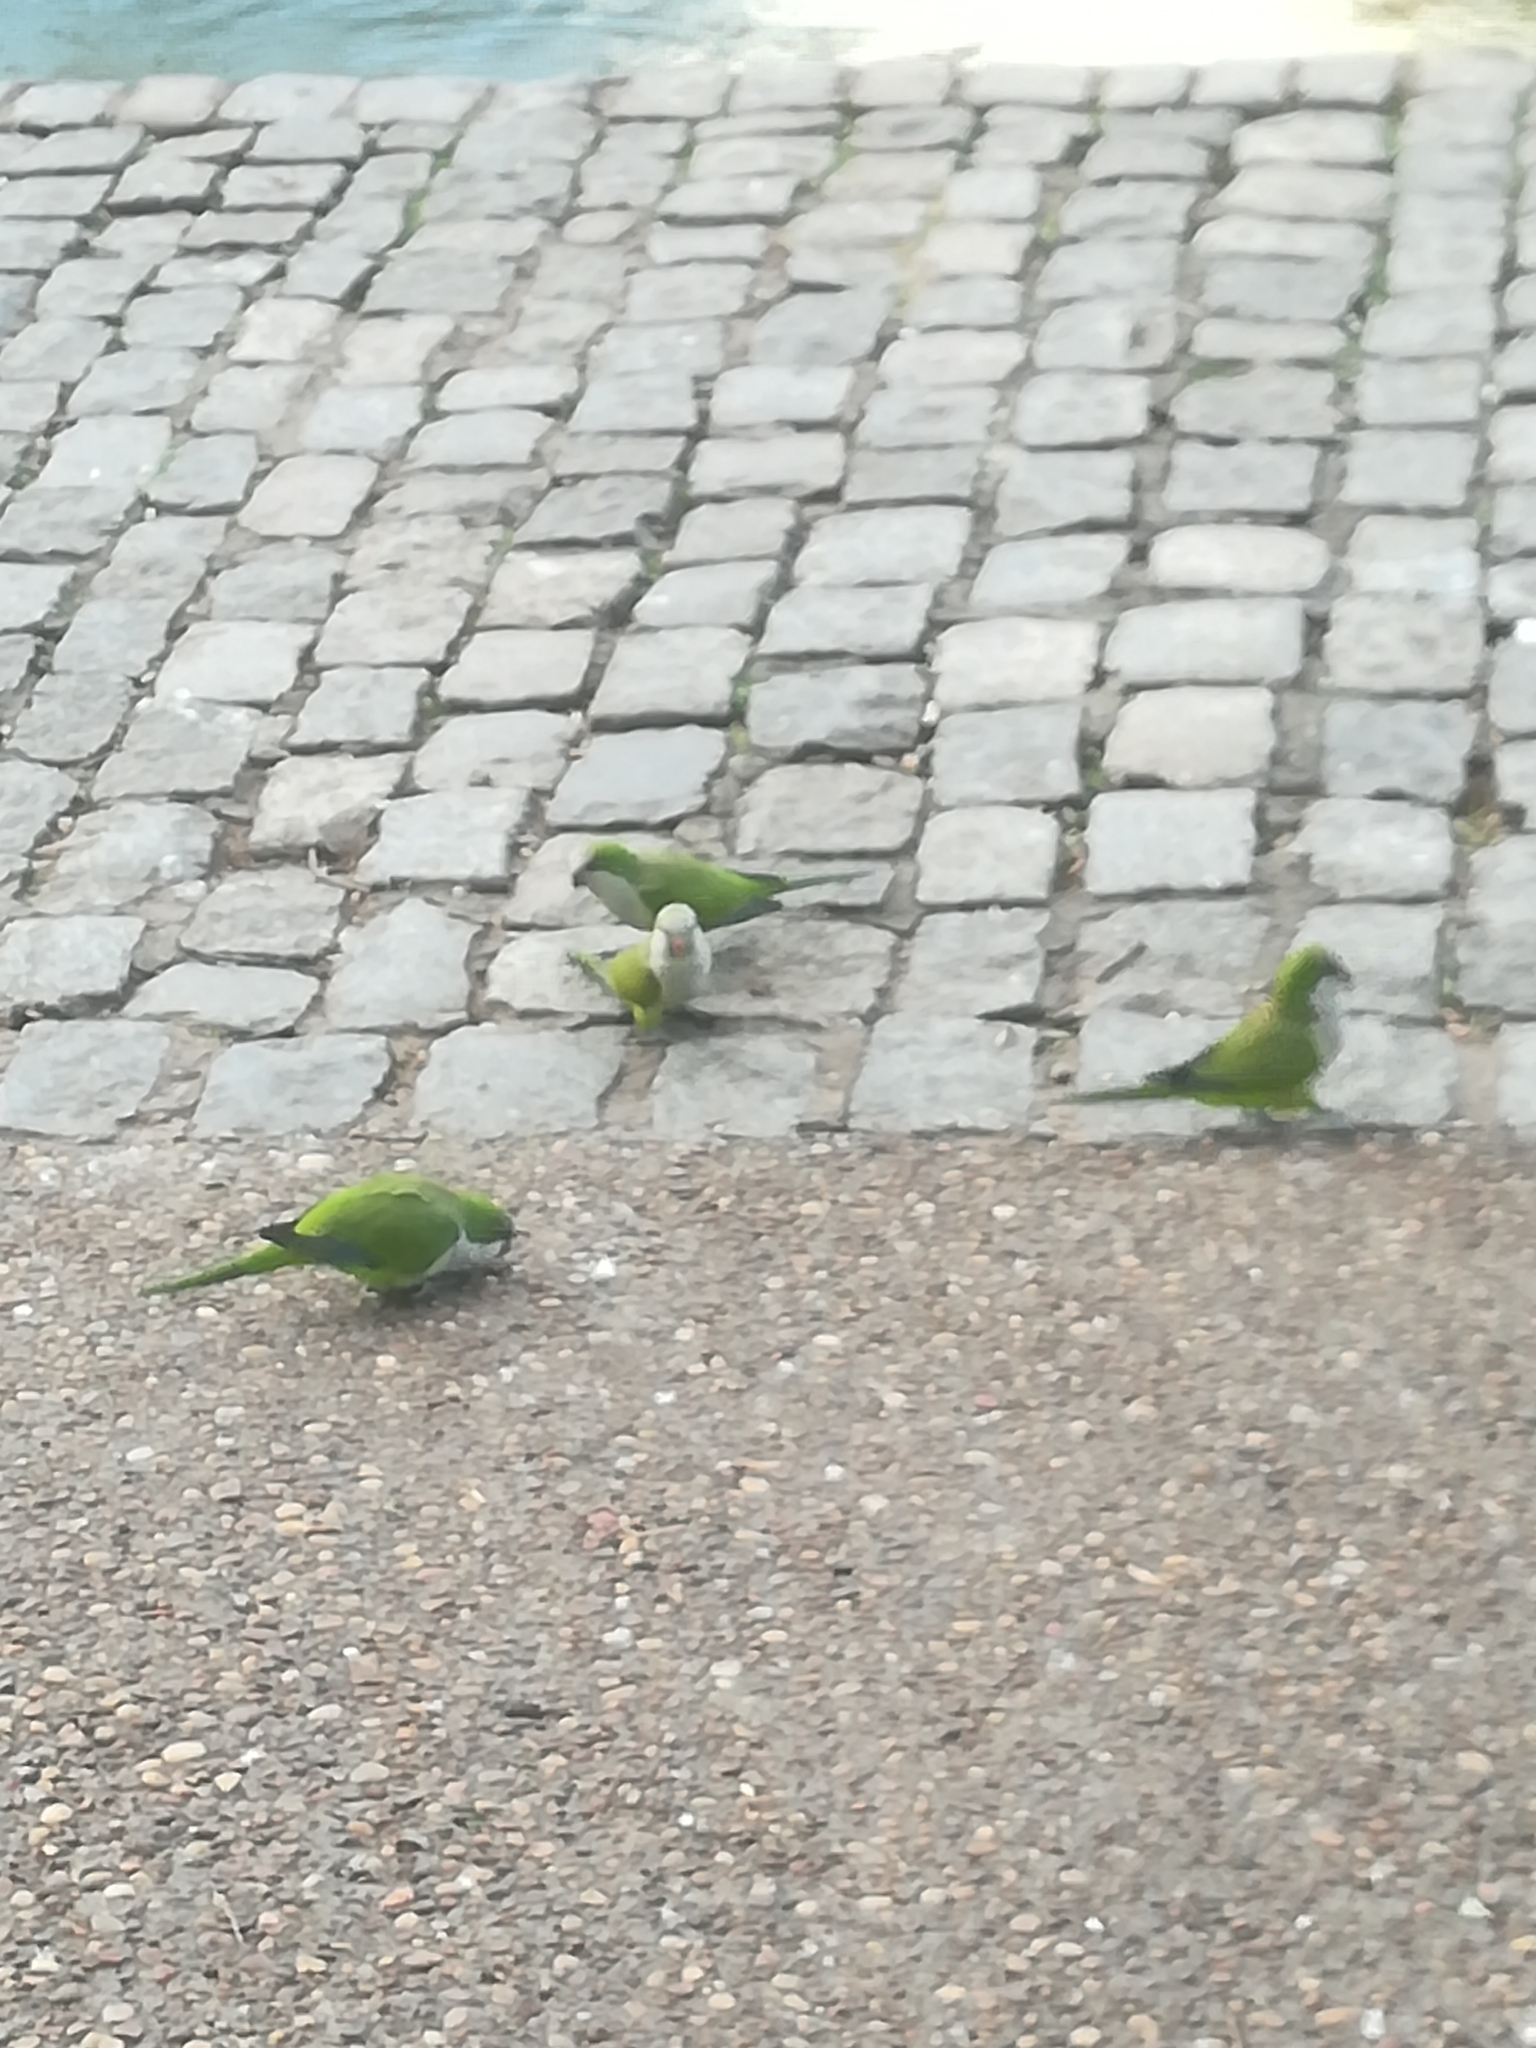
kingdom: Animalia
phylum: Chordata
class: Aves
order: Psittaciformes
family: Psittacidae
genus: Myiopsitta
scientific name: Myiopsitta monachus
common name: Monk parakeet
